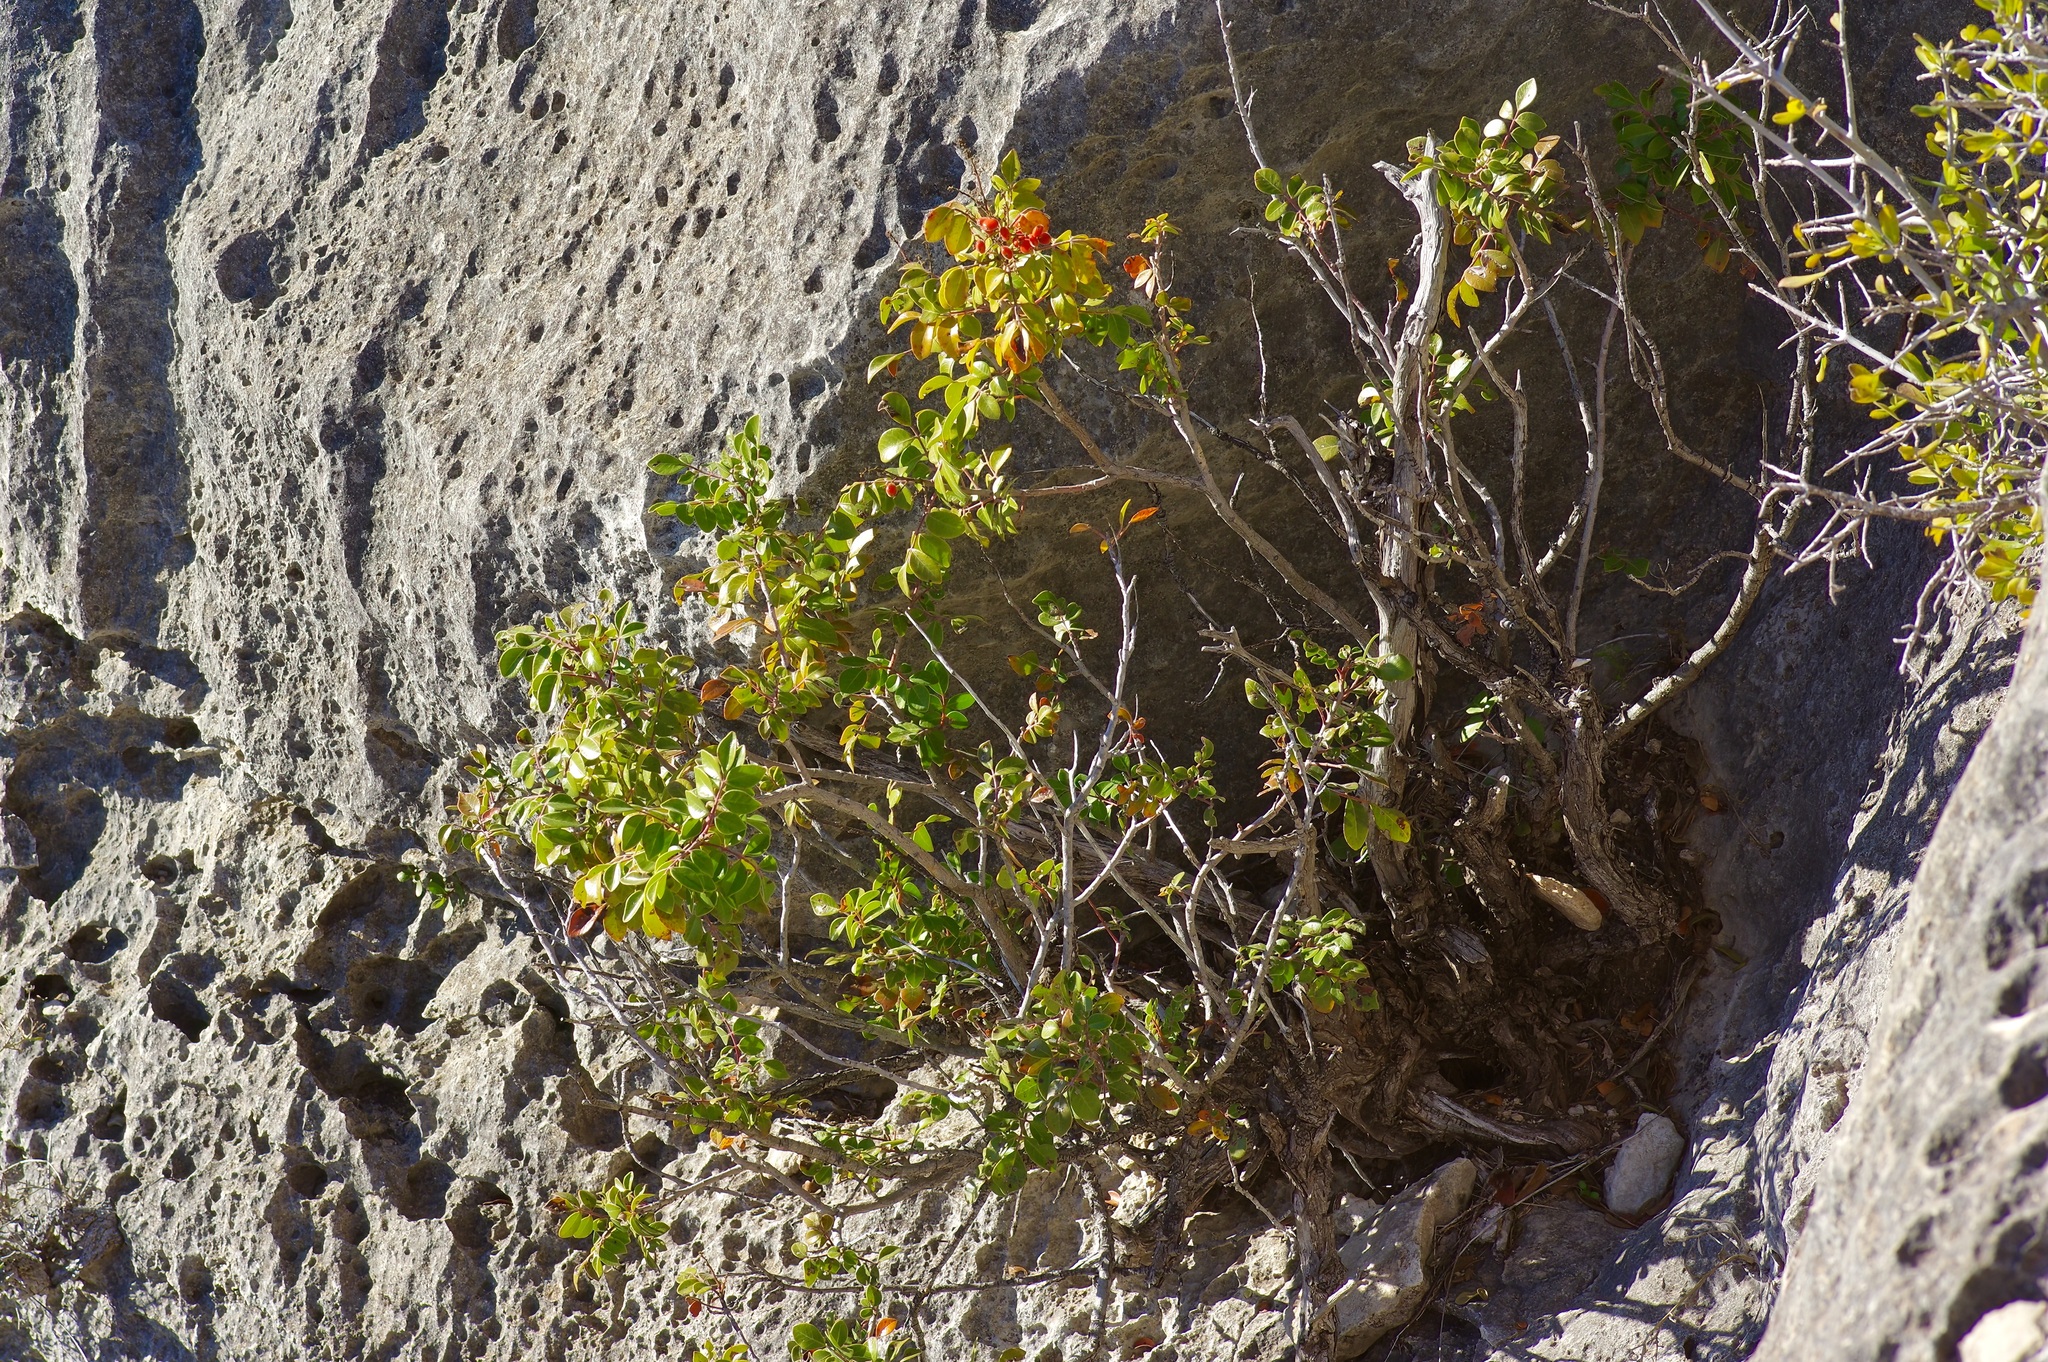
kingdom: Plantae
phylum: Tracheophyta
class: Magnoliopsida
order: Sapindales
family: Anacardiaceae
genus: Rhus
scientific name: Rhus virens
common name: Evergreen sumac
